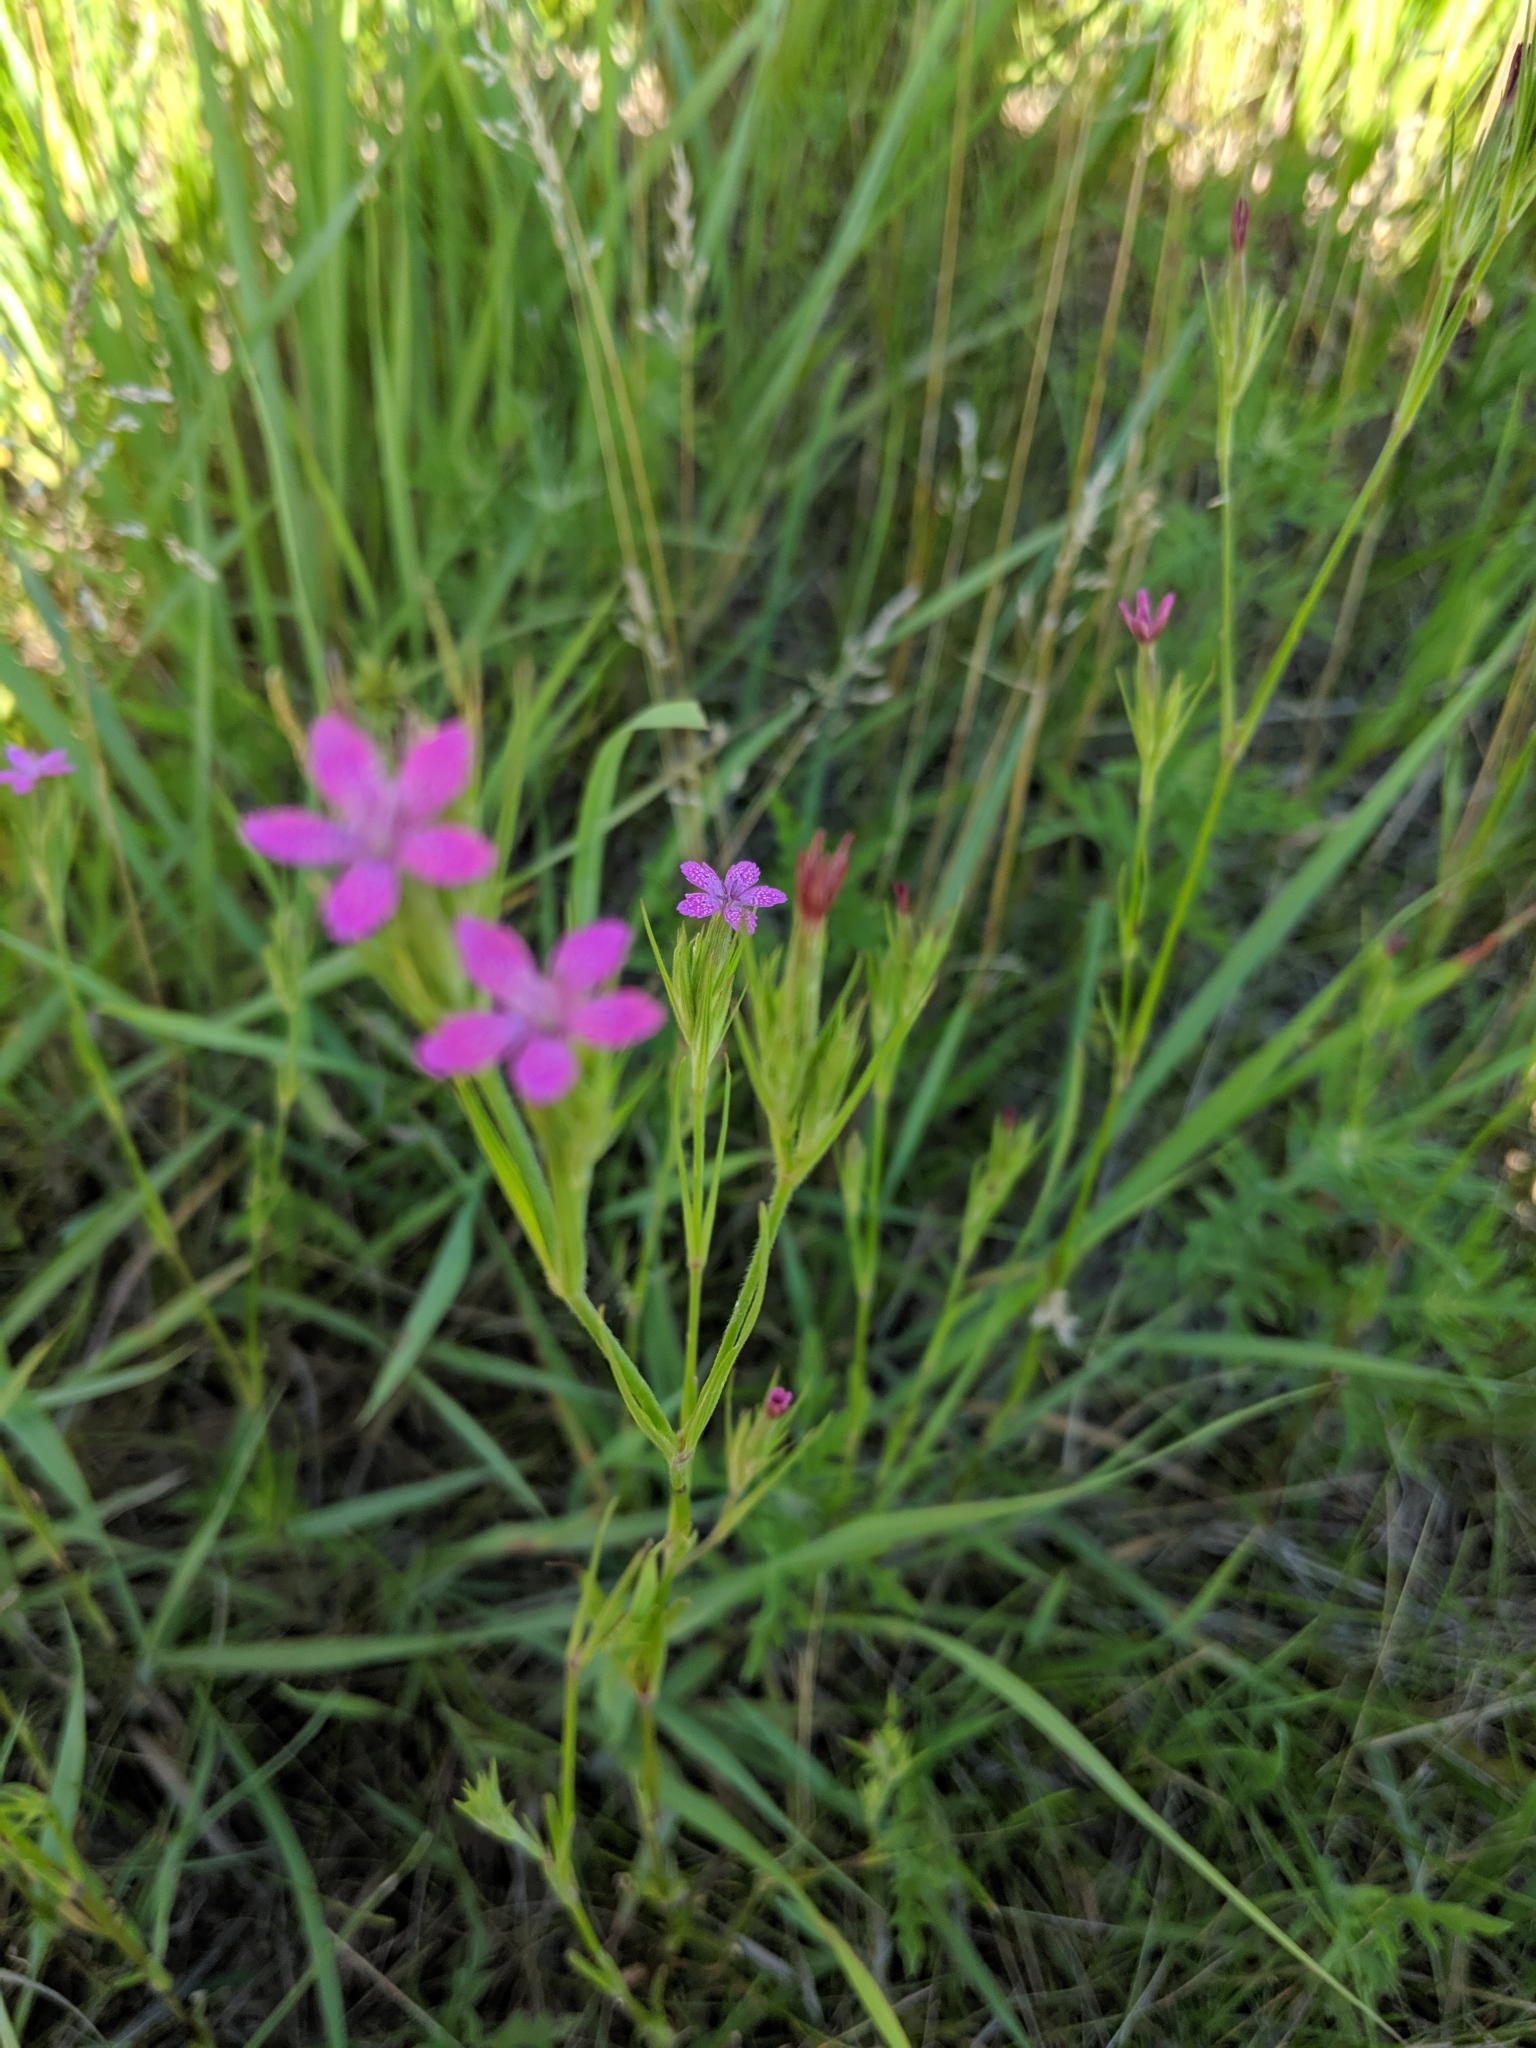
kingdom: Plantae
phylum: Tracheophyta
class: Magnoliopsida
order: Caryophyllales
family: Caryophyllaceae
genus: Dianthus
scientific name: Dianthus armeria
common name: Deptford pink
